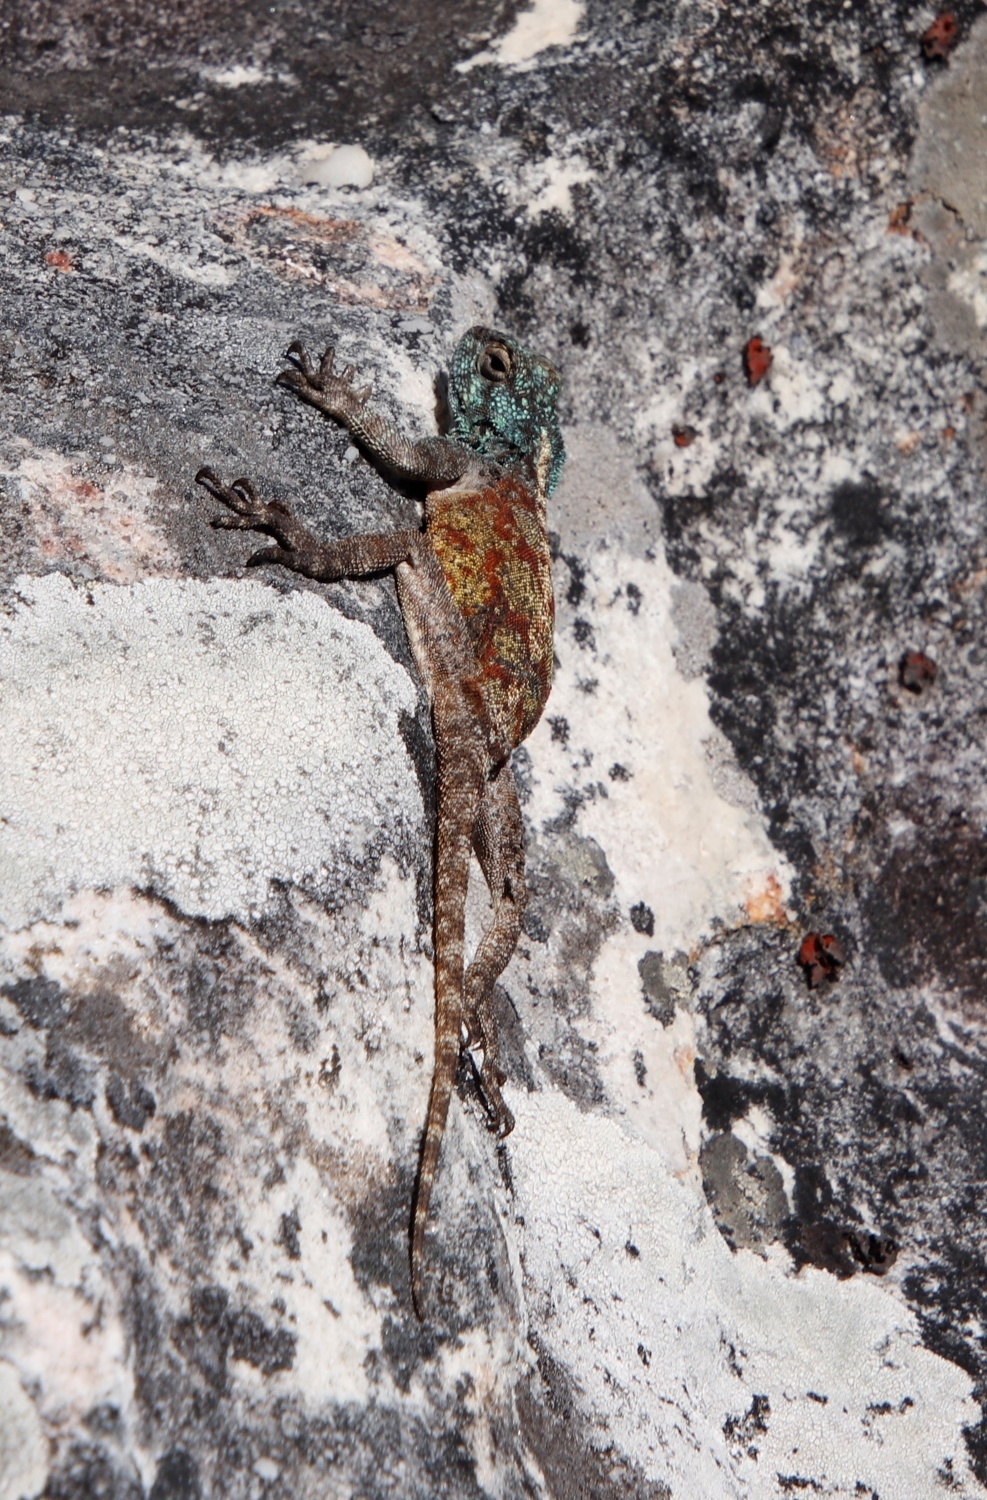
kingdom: Animalia
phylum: Chordata
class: Squamata
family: Agamidae
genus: Agama
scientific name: Agama atra
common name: Southern african rock agama
